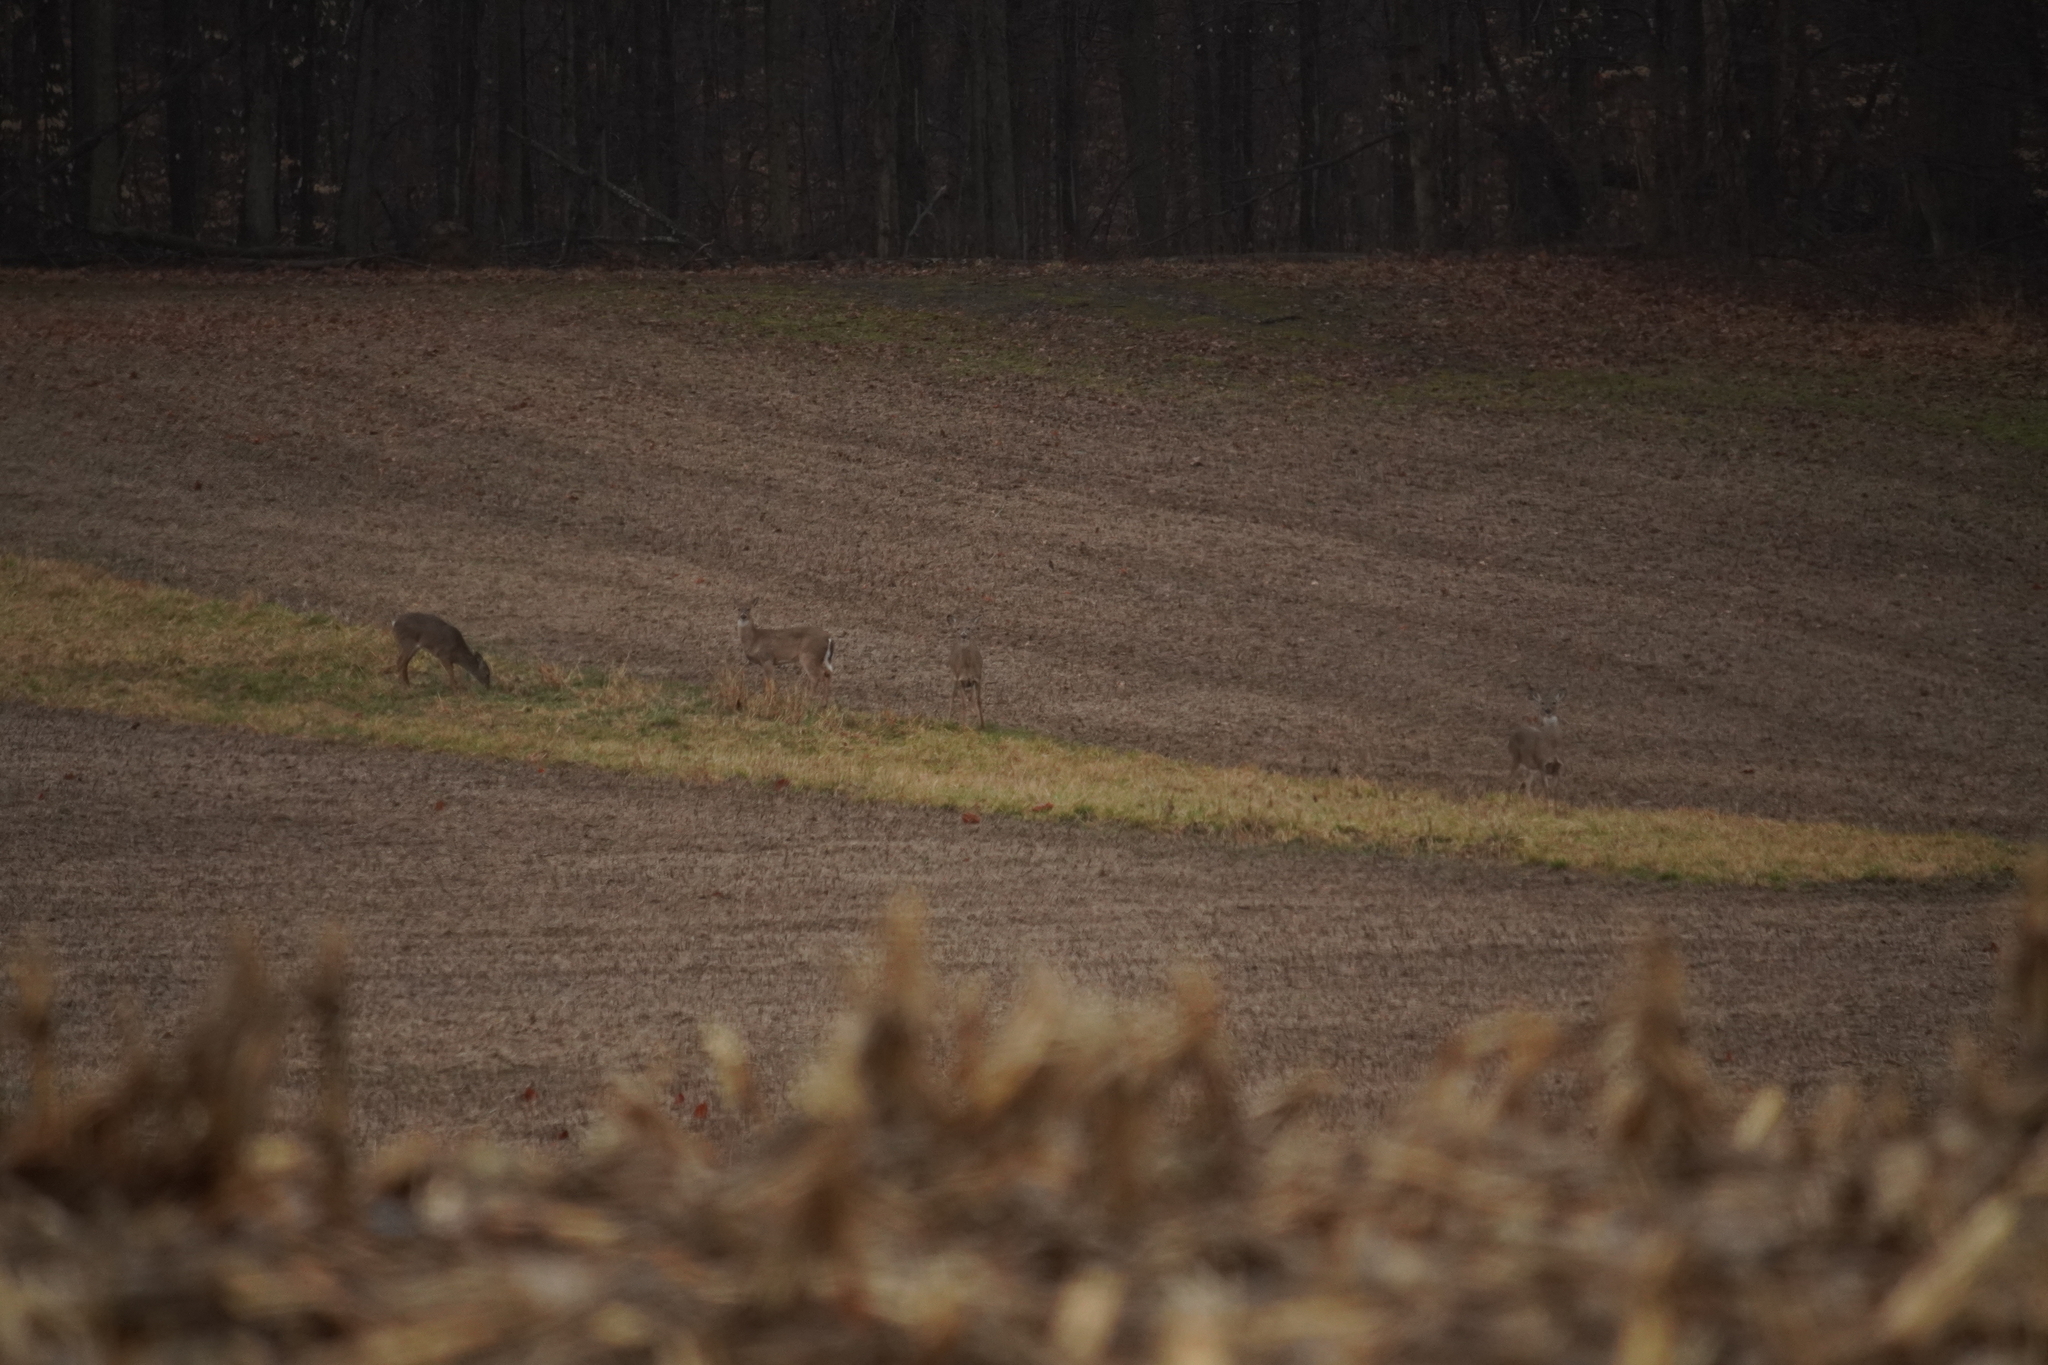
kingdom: Animalia
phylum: Chordata
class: Mammalia
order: Artiodactyla
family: Cervidae
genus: Odocoileus
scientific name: Odocoileus virginianus
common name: White-tailed deer
